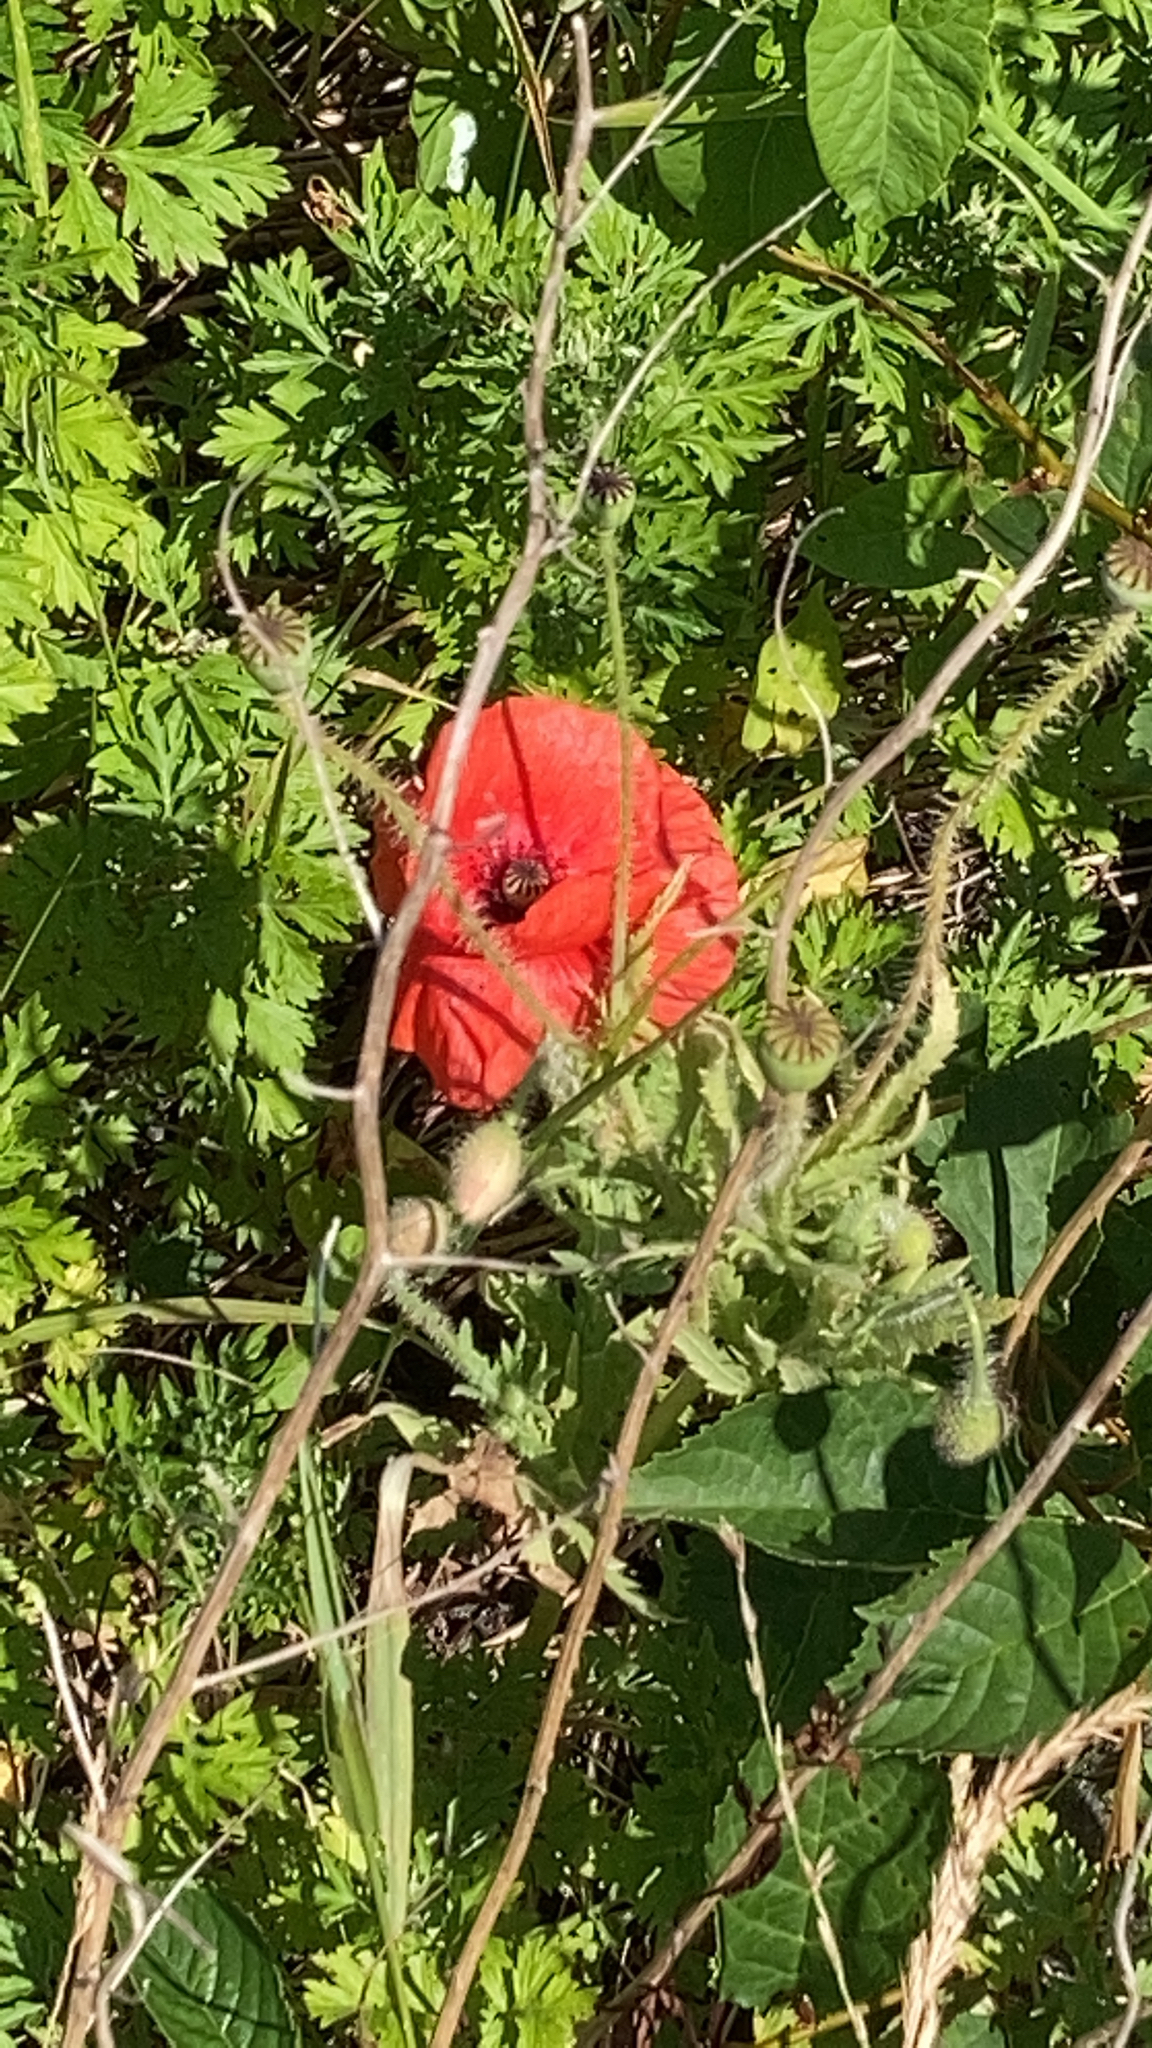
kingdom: Plantae
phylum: Tracheophyta
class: Magnoliopsida
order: Ranunculales
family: Papaveraceae
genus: Papaver
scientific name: Papaver rhoeas
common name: Corn poppy
